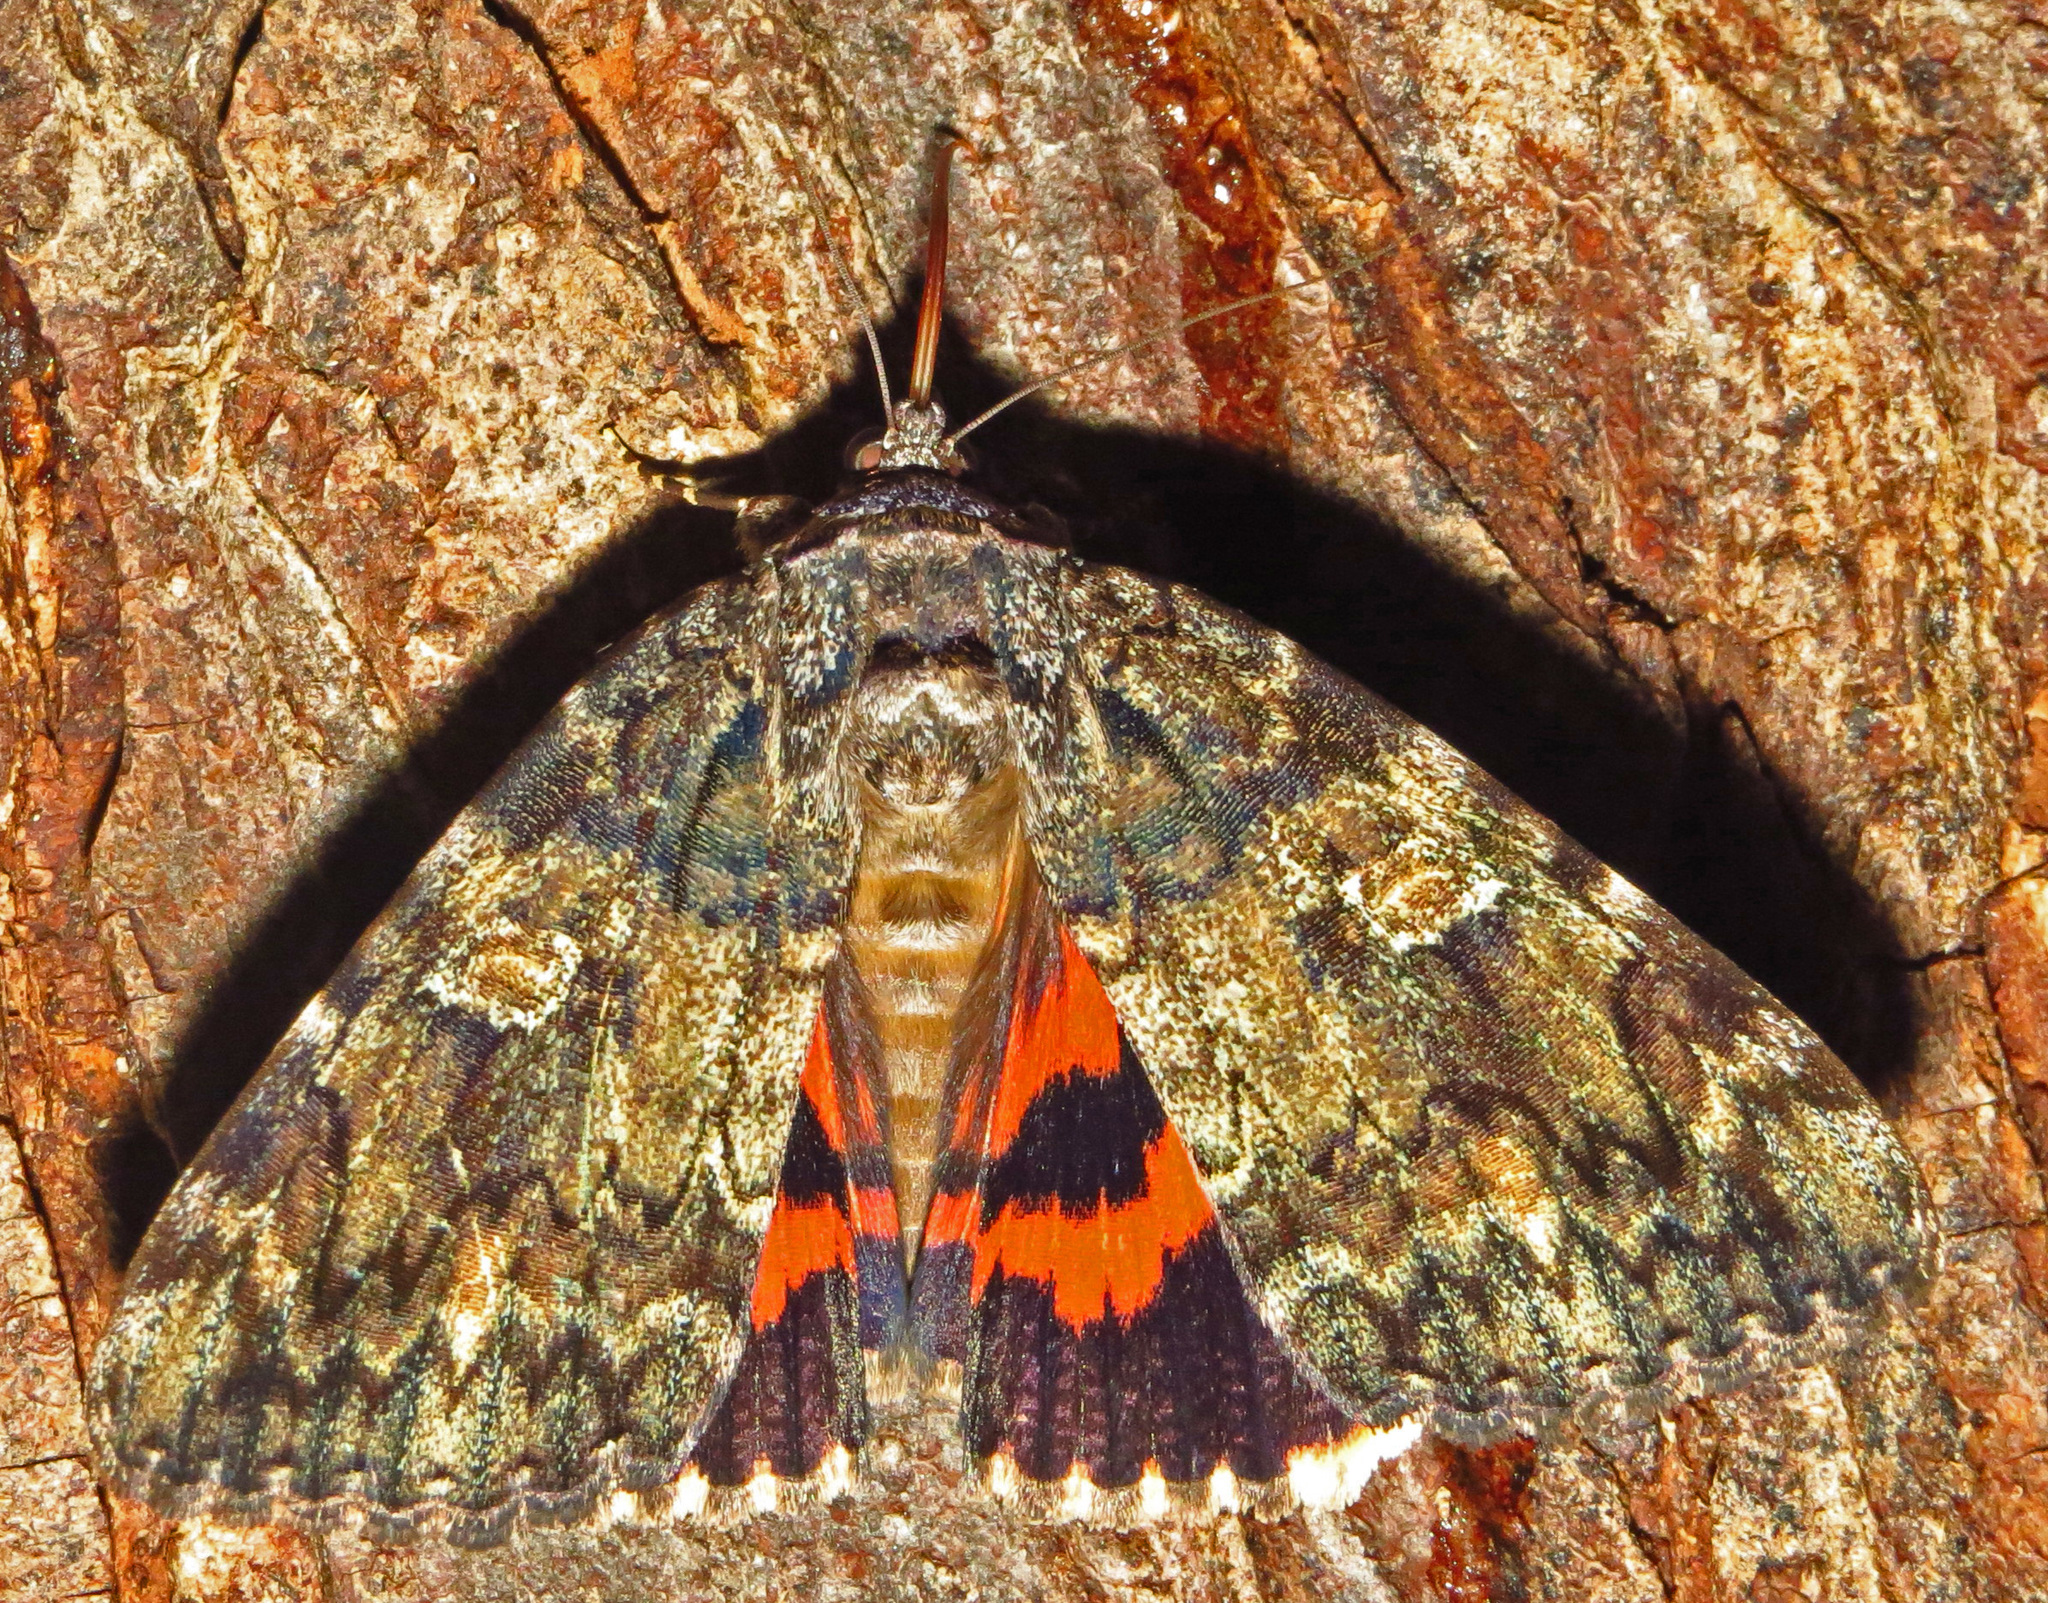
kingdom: Animalia
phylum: Arthropoda
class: Insecta
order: Lepidoptera
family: Erebidae
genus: Catocala
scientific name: Catocala ilia
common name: Ilia underwing
